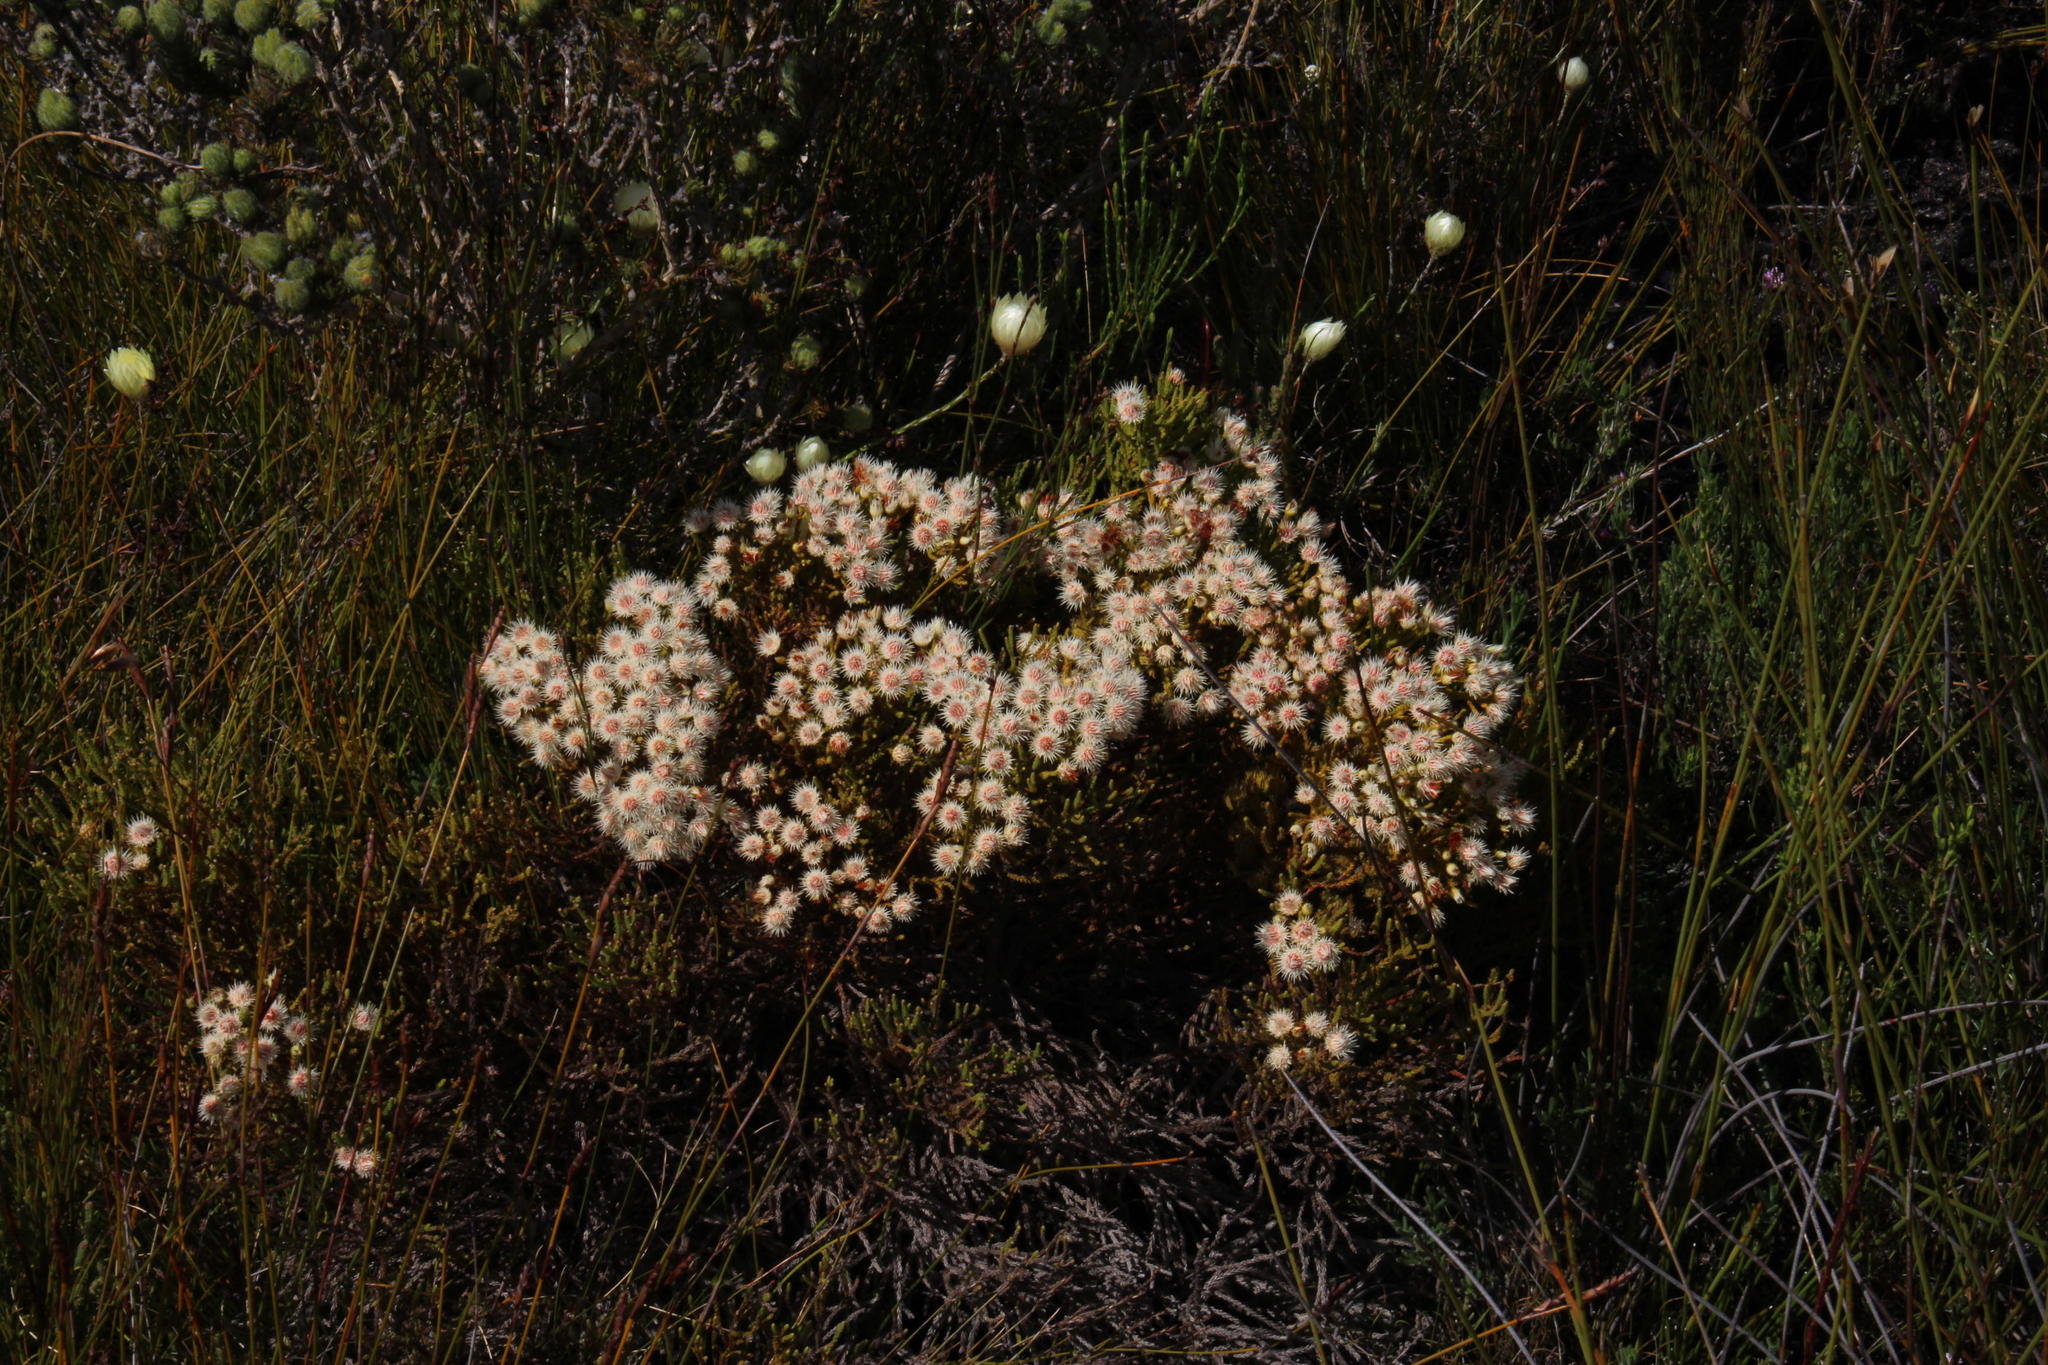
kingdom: Plantae
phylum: Tracheophyta
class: Magnoliopsida
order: Bruniales
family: Bruniaceae
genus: Brunia
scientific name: Brunia paleacea
